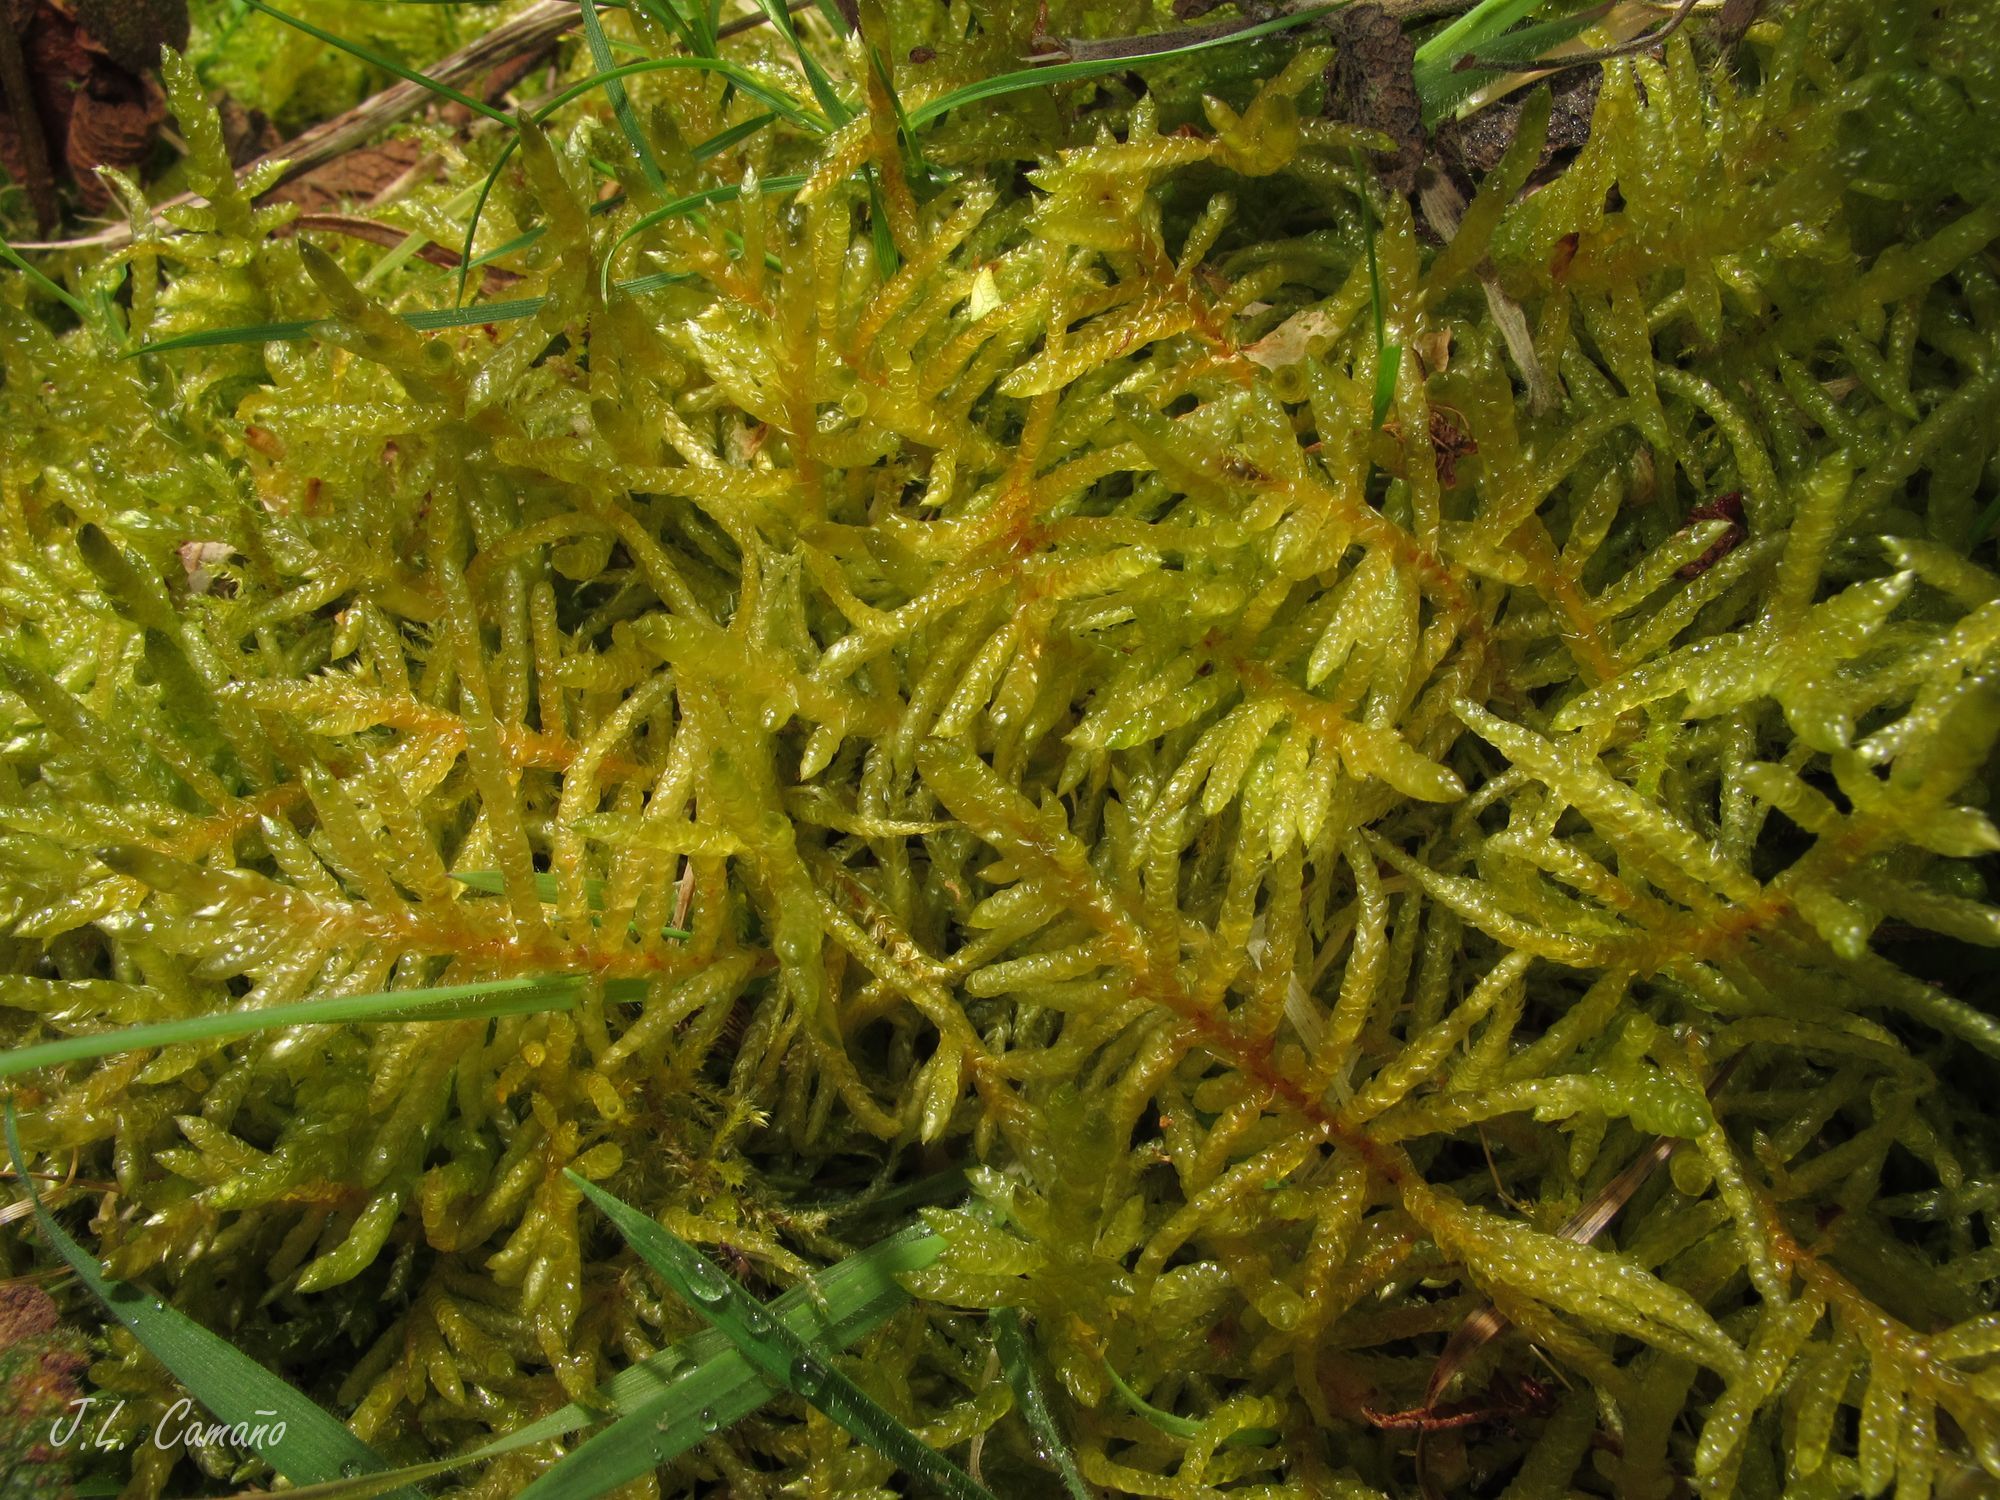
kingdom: Plantae
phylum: Bryophyta
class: Bryopsida
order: Hypnales
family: Brachytheciaceae
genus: Pseudoscleropodium
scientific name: Pseudoscleropodium purum
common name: Neat feather-moss
